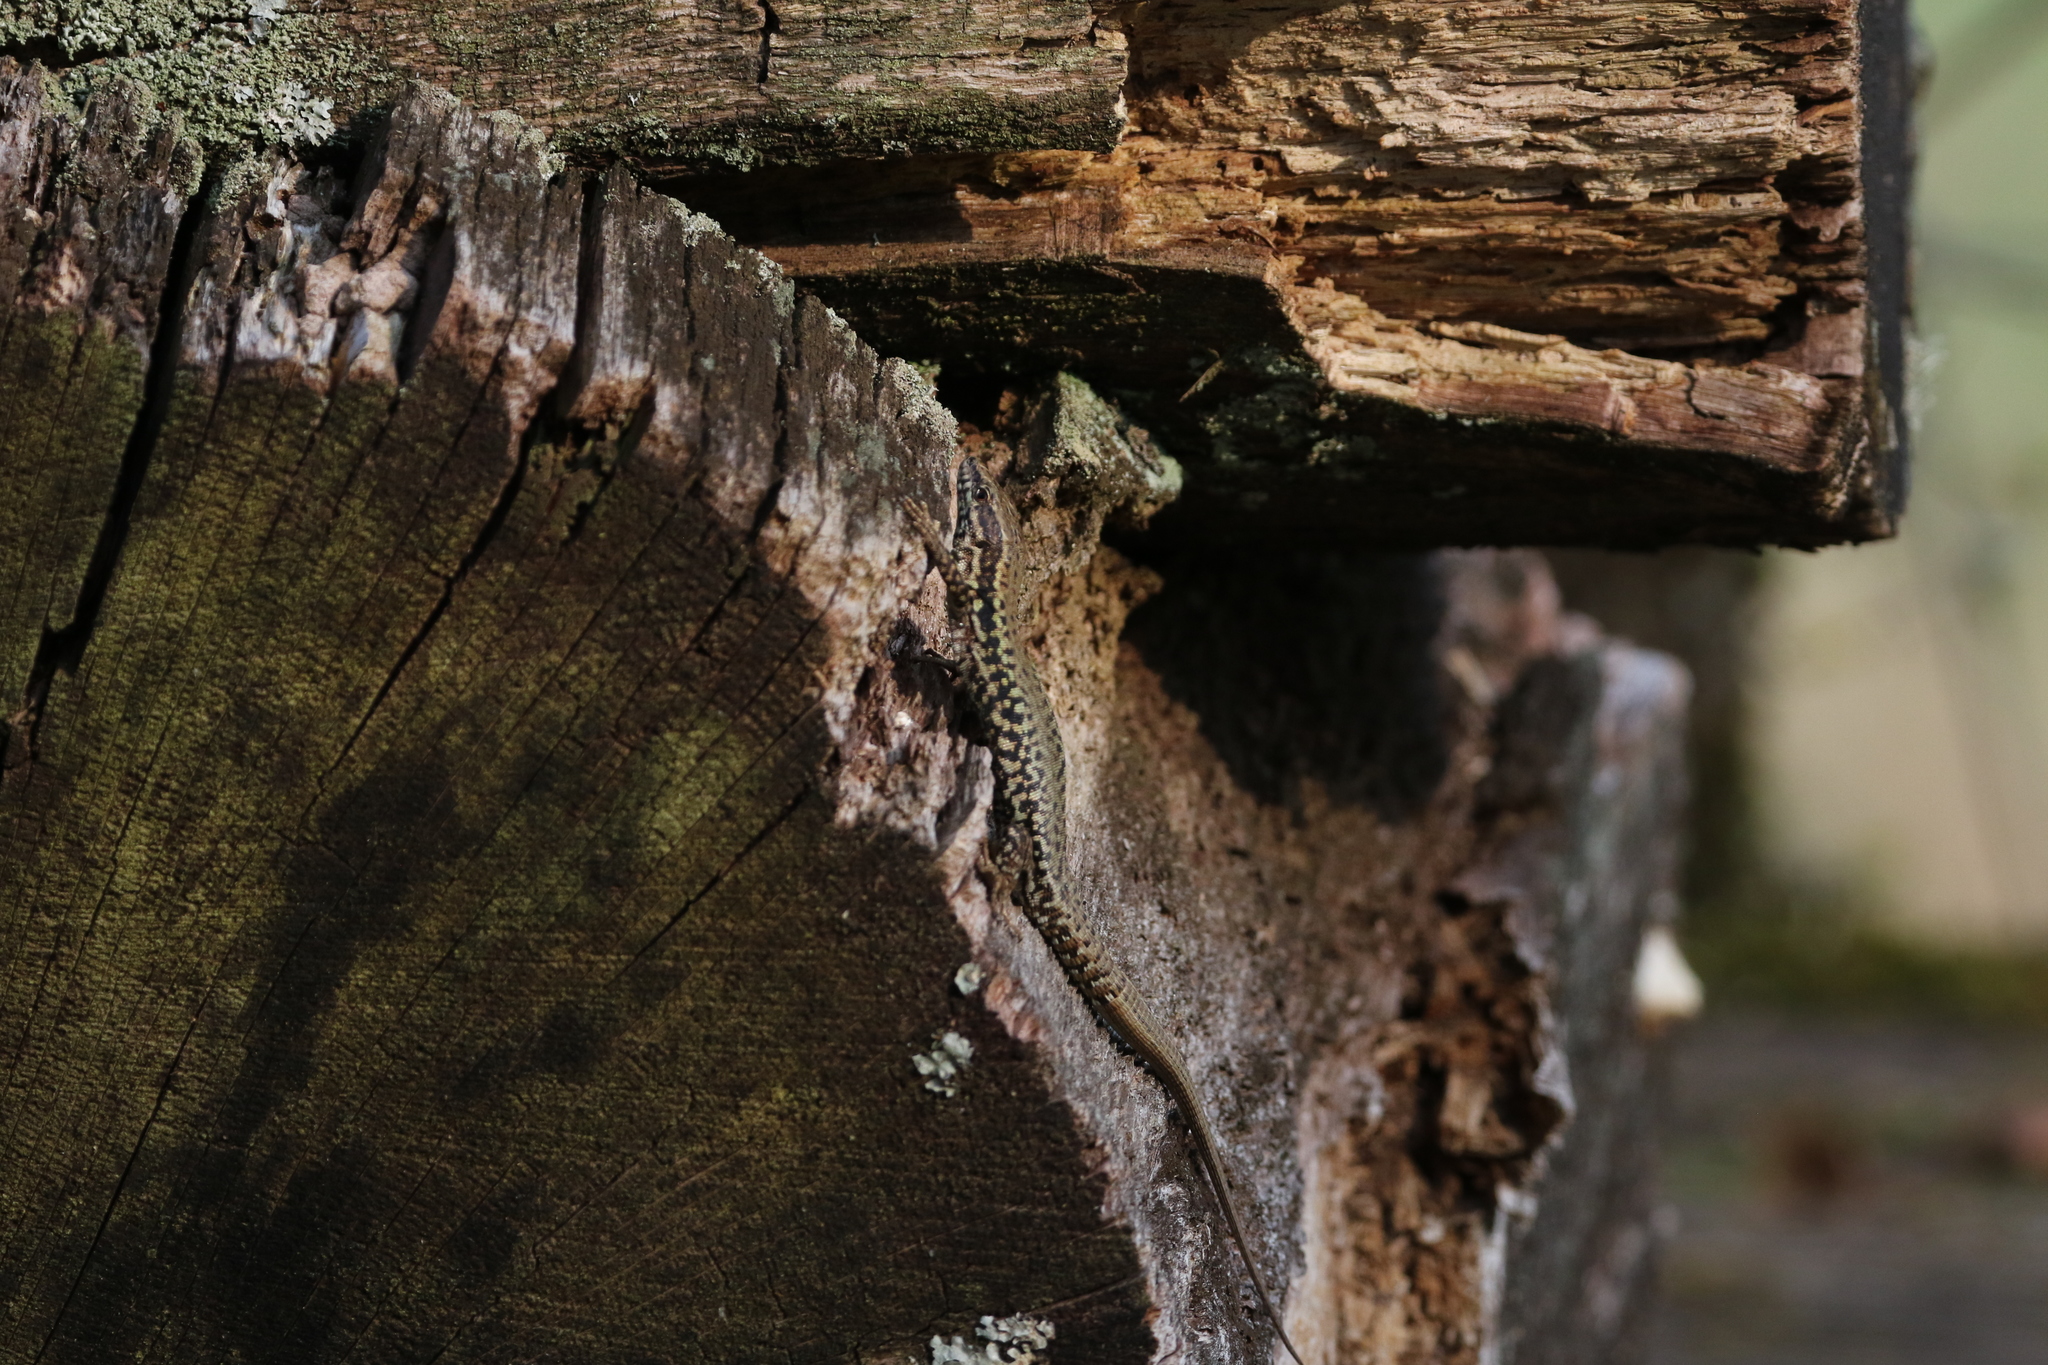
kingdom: Animalia
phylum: Chordata
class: Squamata
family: Lacertidae
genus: Podarcis
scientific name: Podarcis muralis
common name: Common wall lizard
